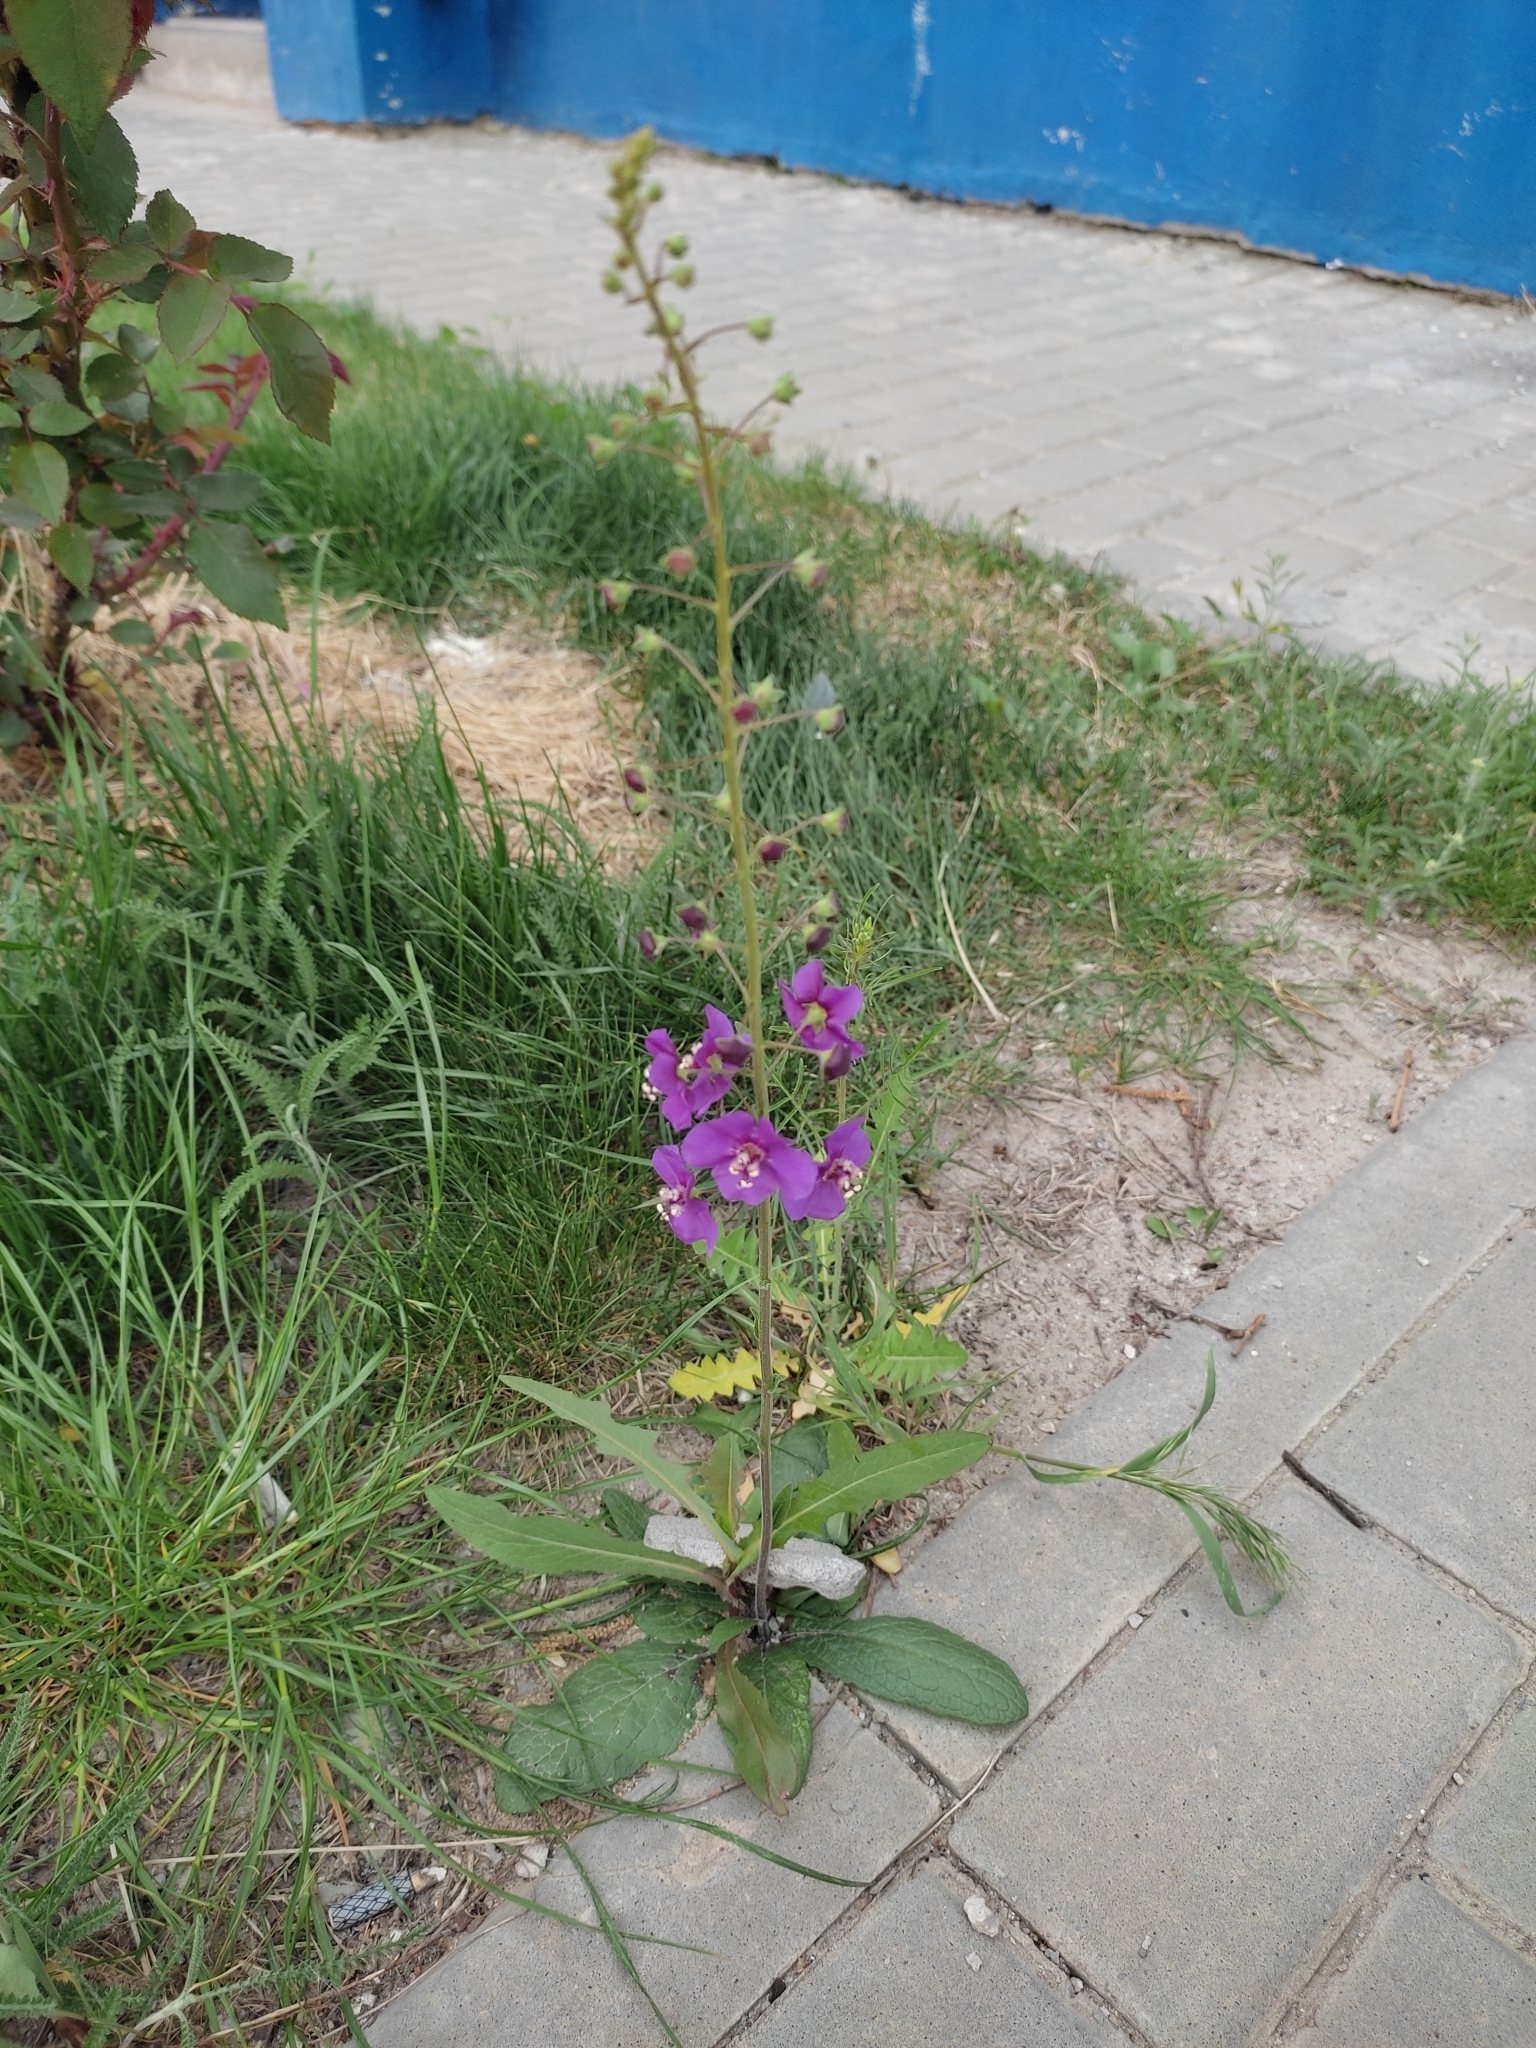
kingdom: Plantae
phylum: Tracheophyta
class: Magnoliopsida
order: Lamiales
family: Scrophulariaceae
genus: Verbascum
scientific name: Verbascum phoeniceum
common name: Purple mullein
